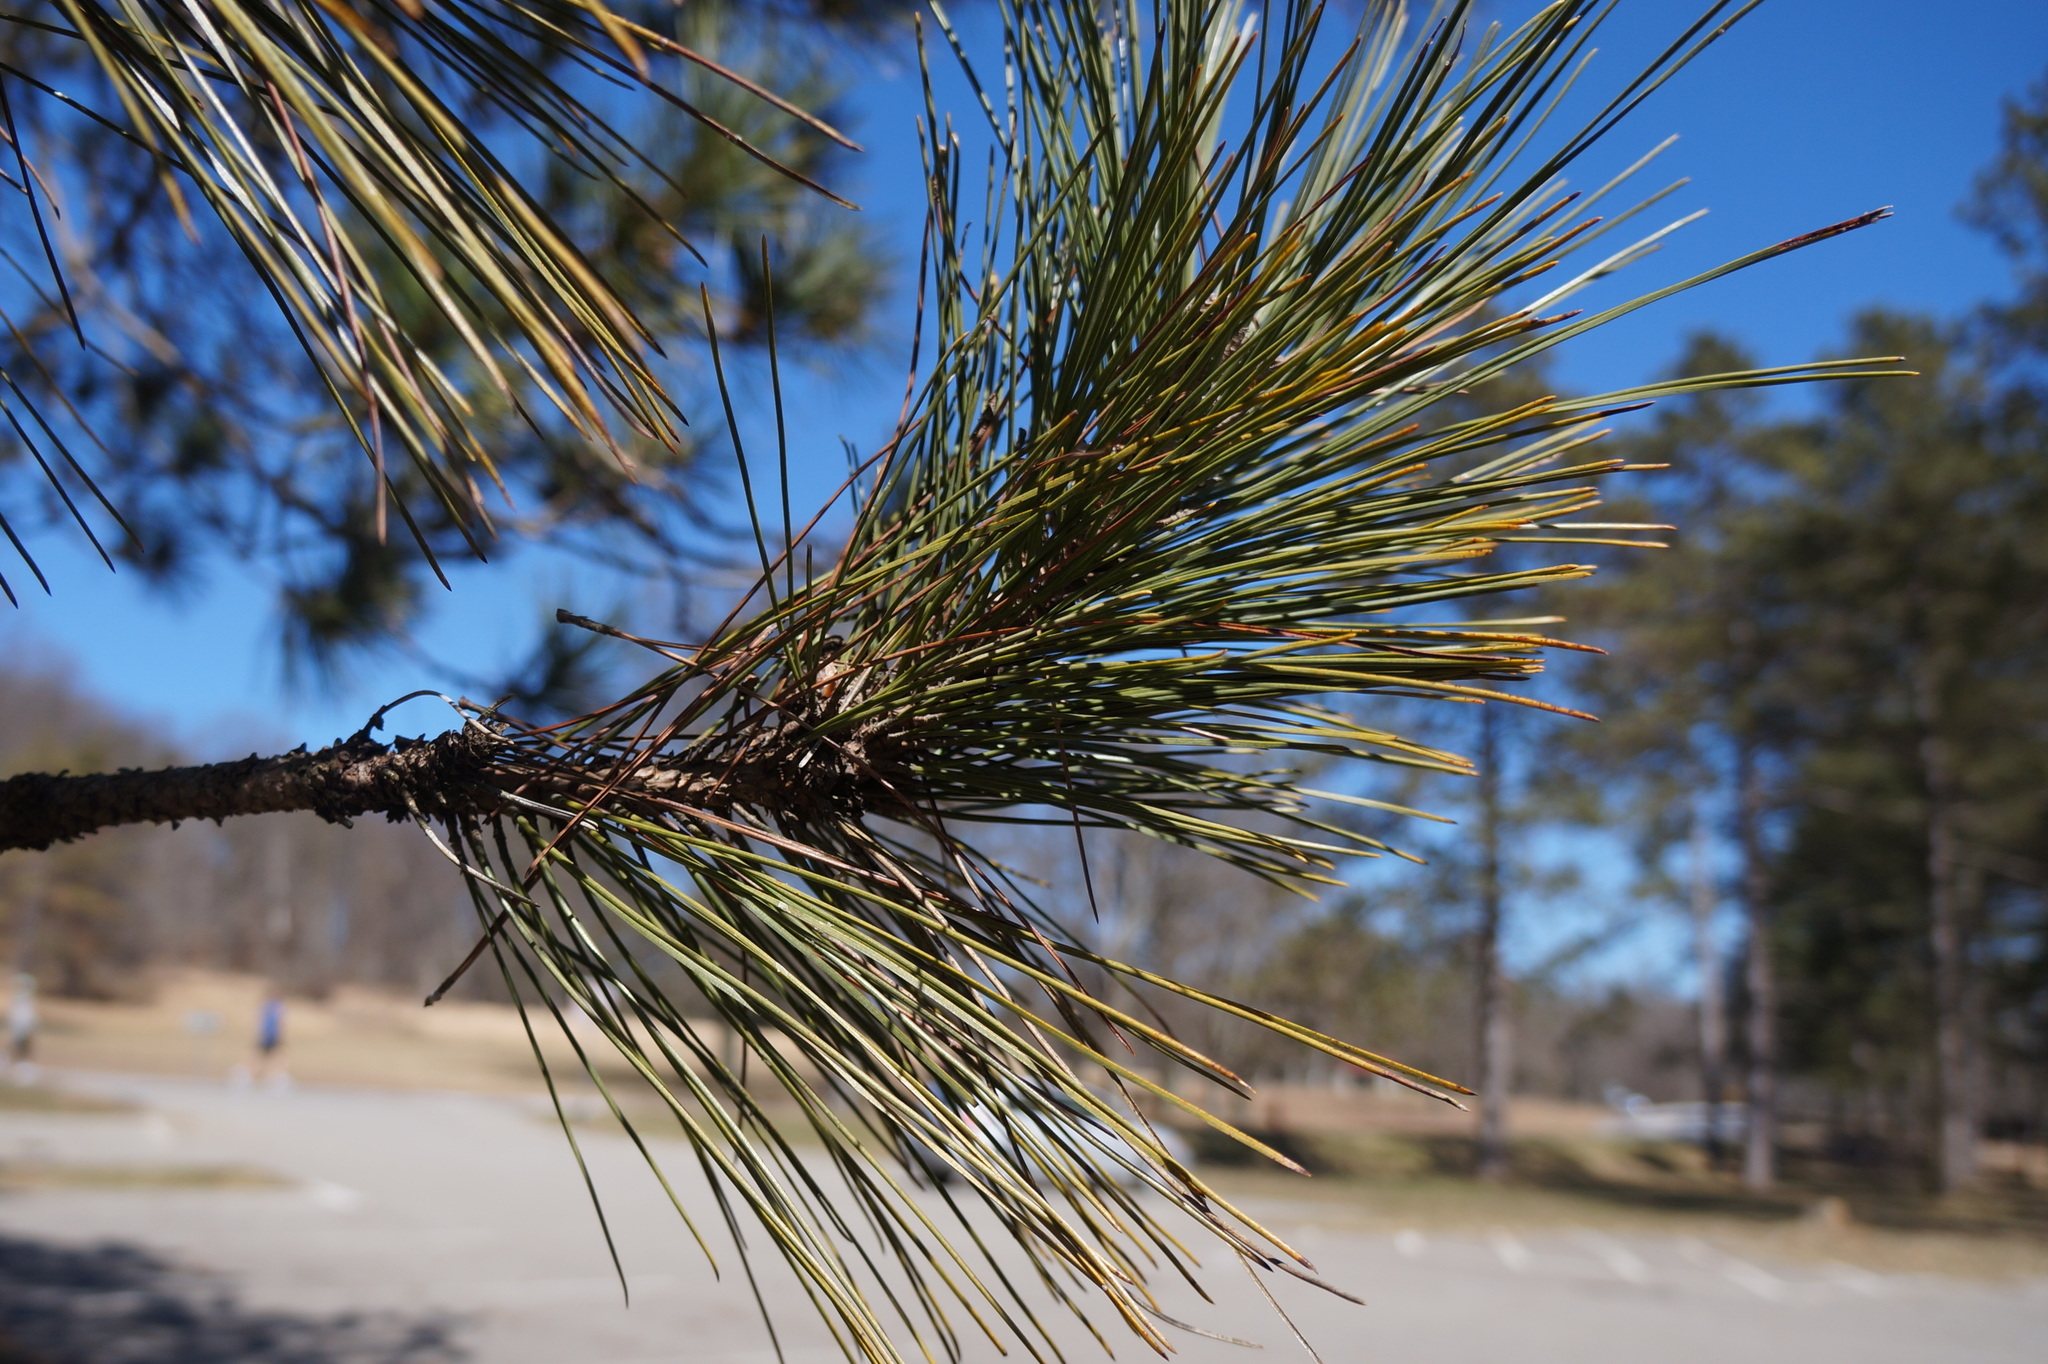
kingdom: Plantae
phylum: Tracheophyta
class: Pinopsida
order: Pinales
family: Pinaceae
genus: Pinus
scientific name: Pinus resinosa
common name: Norway pine
